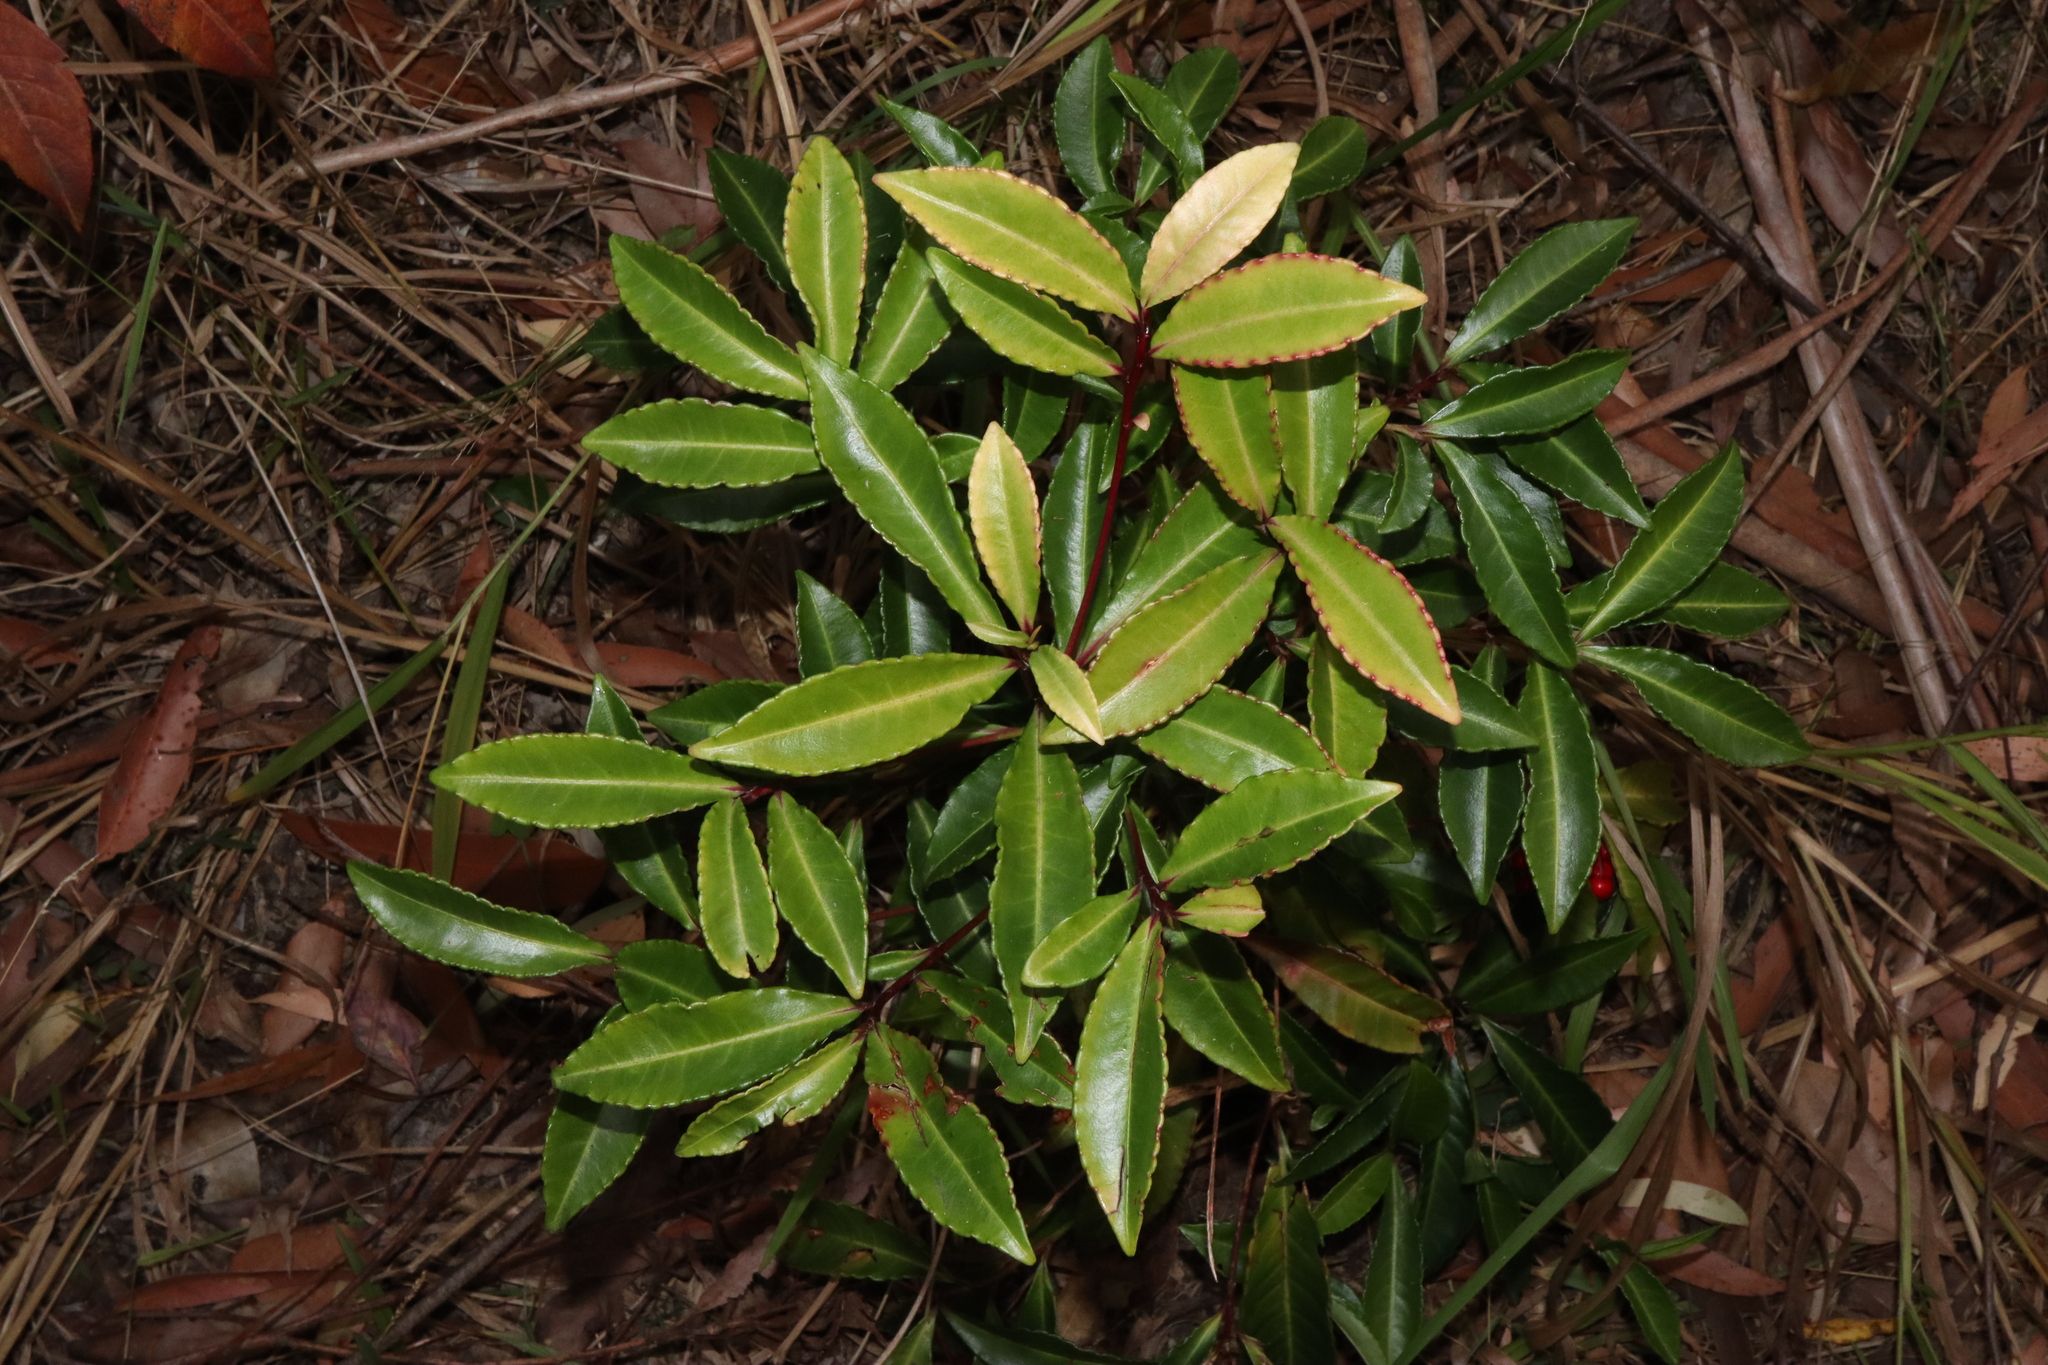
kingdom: Plantae
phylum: Tracheophyta
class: Magnoliopsida
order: Ericales
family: Primulaceae
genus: Ardisia
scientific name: Ardisia crenata
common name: Hen's eyes
